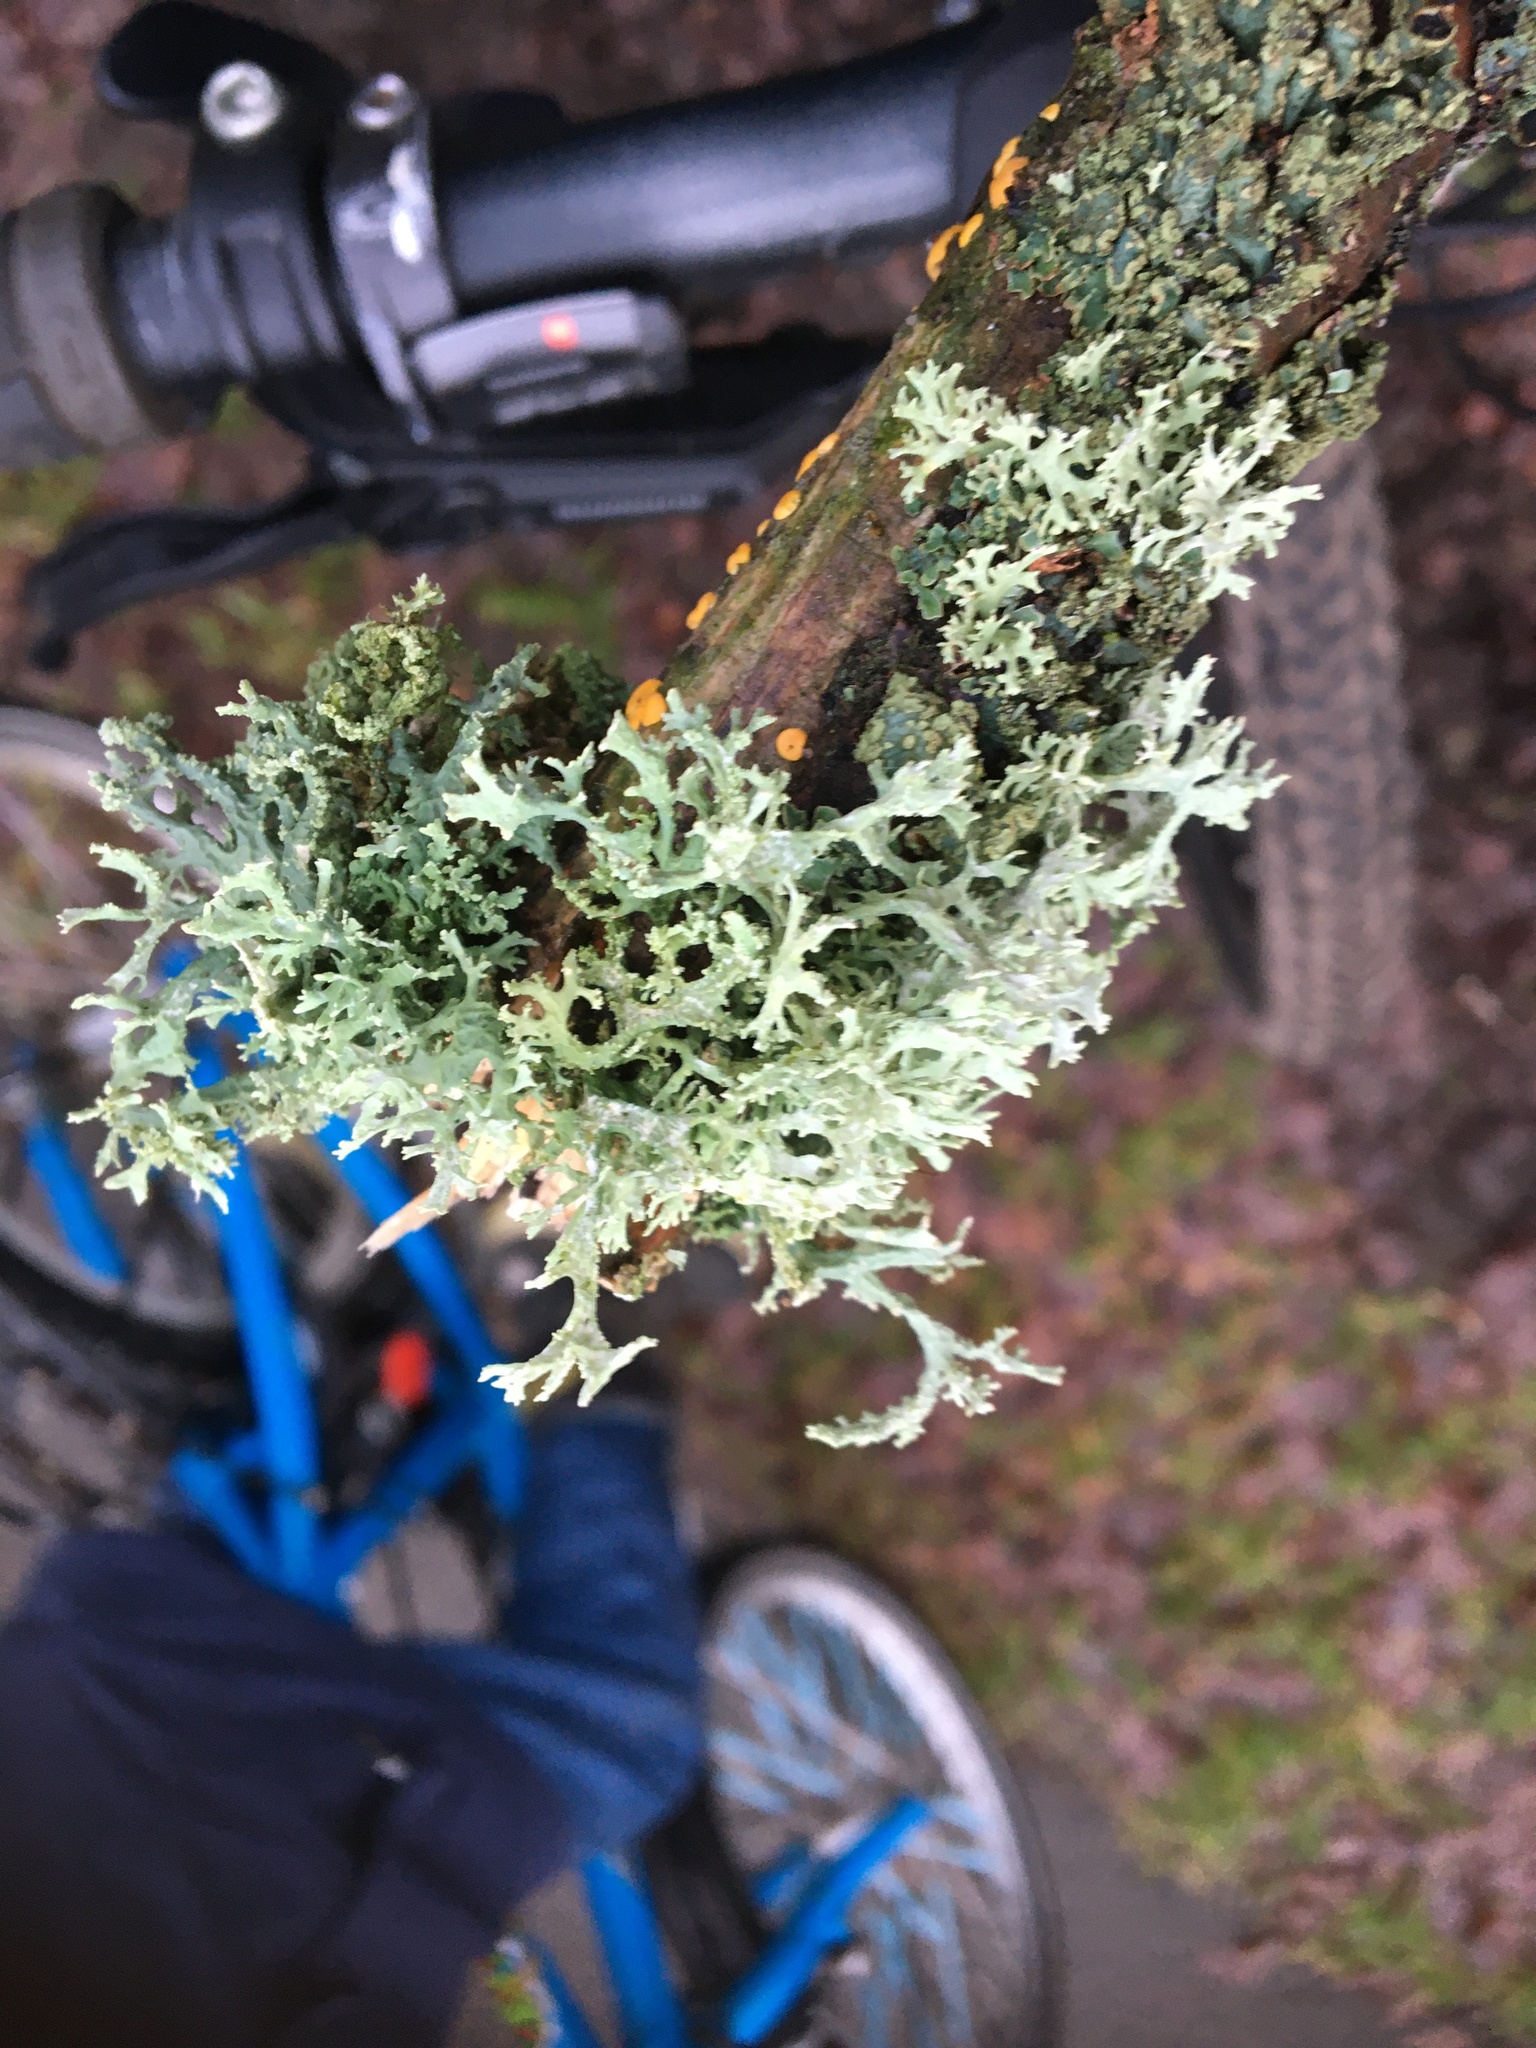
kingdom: Fungi
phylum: Ascomycota
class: Lecanoromycetes
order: Lecanorales
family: Parmeliaceae
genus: Evernia
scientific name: Evernia prunastri
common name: Oak moss
